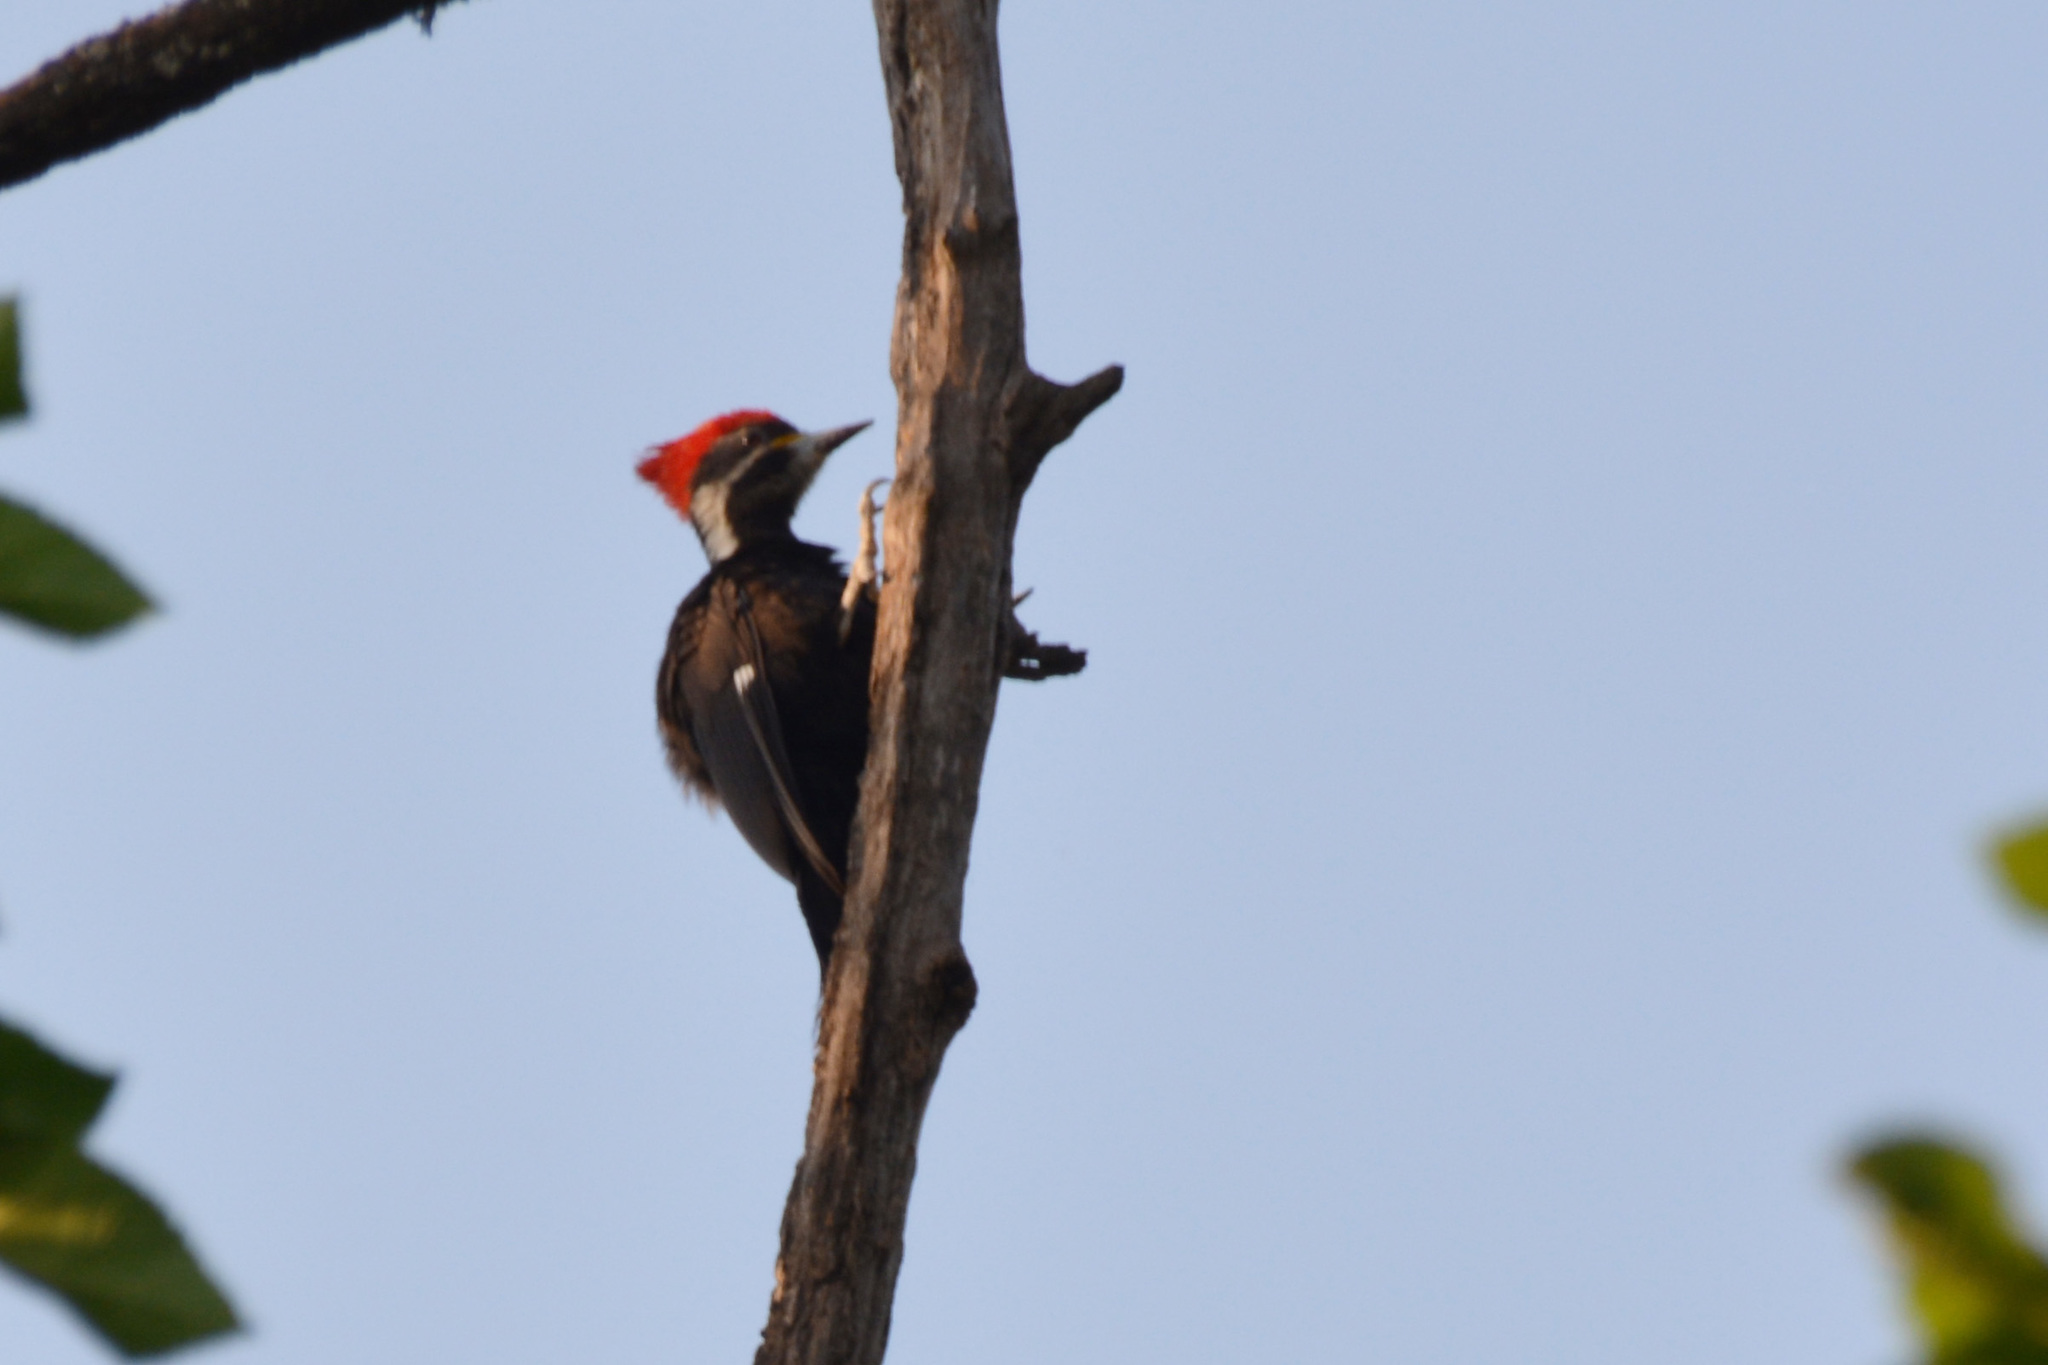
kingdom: Animalia
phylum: Chordata
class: Aves
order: Piciformes
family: Picidae
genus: Dryocopus
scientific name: Dryocopus schulzii
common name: Black-bodied woodpecker
